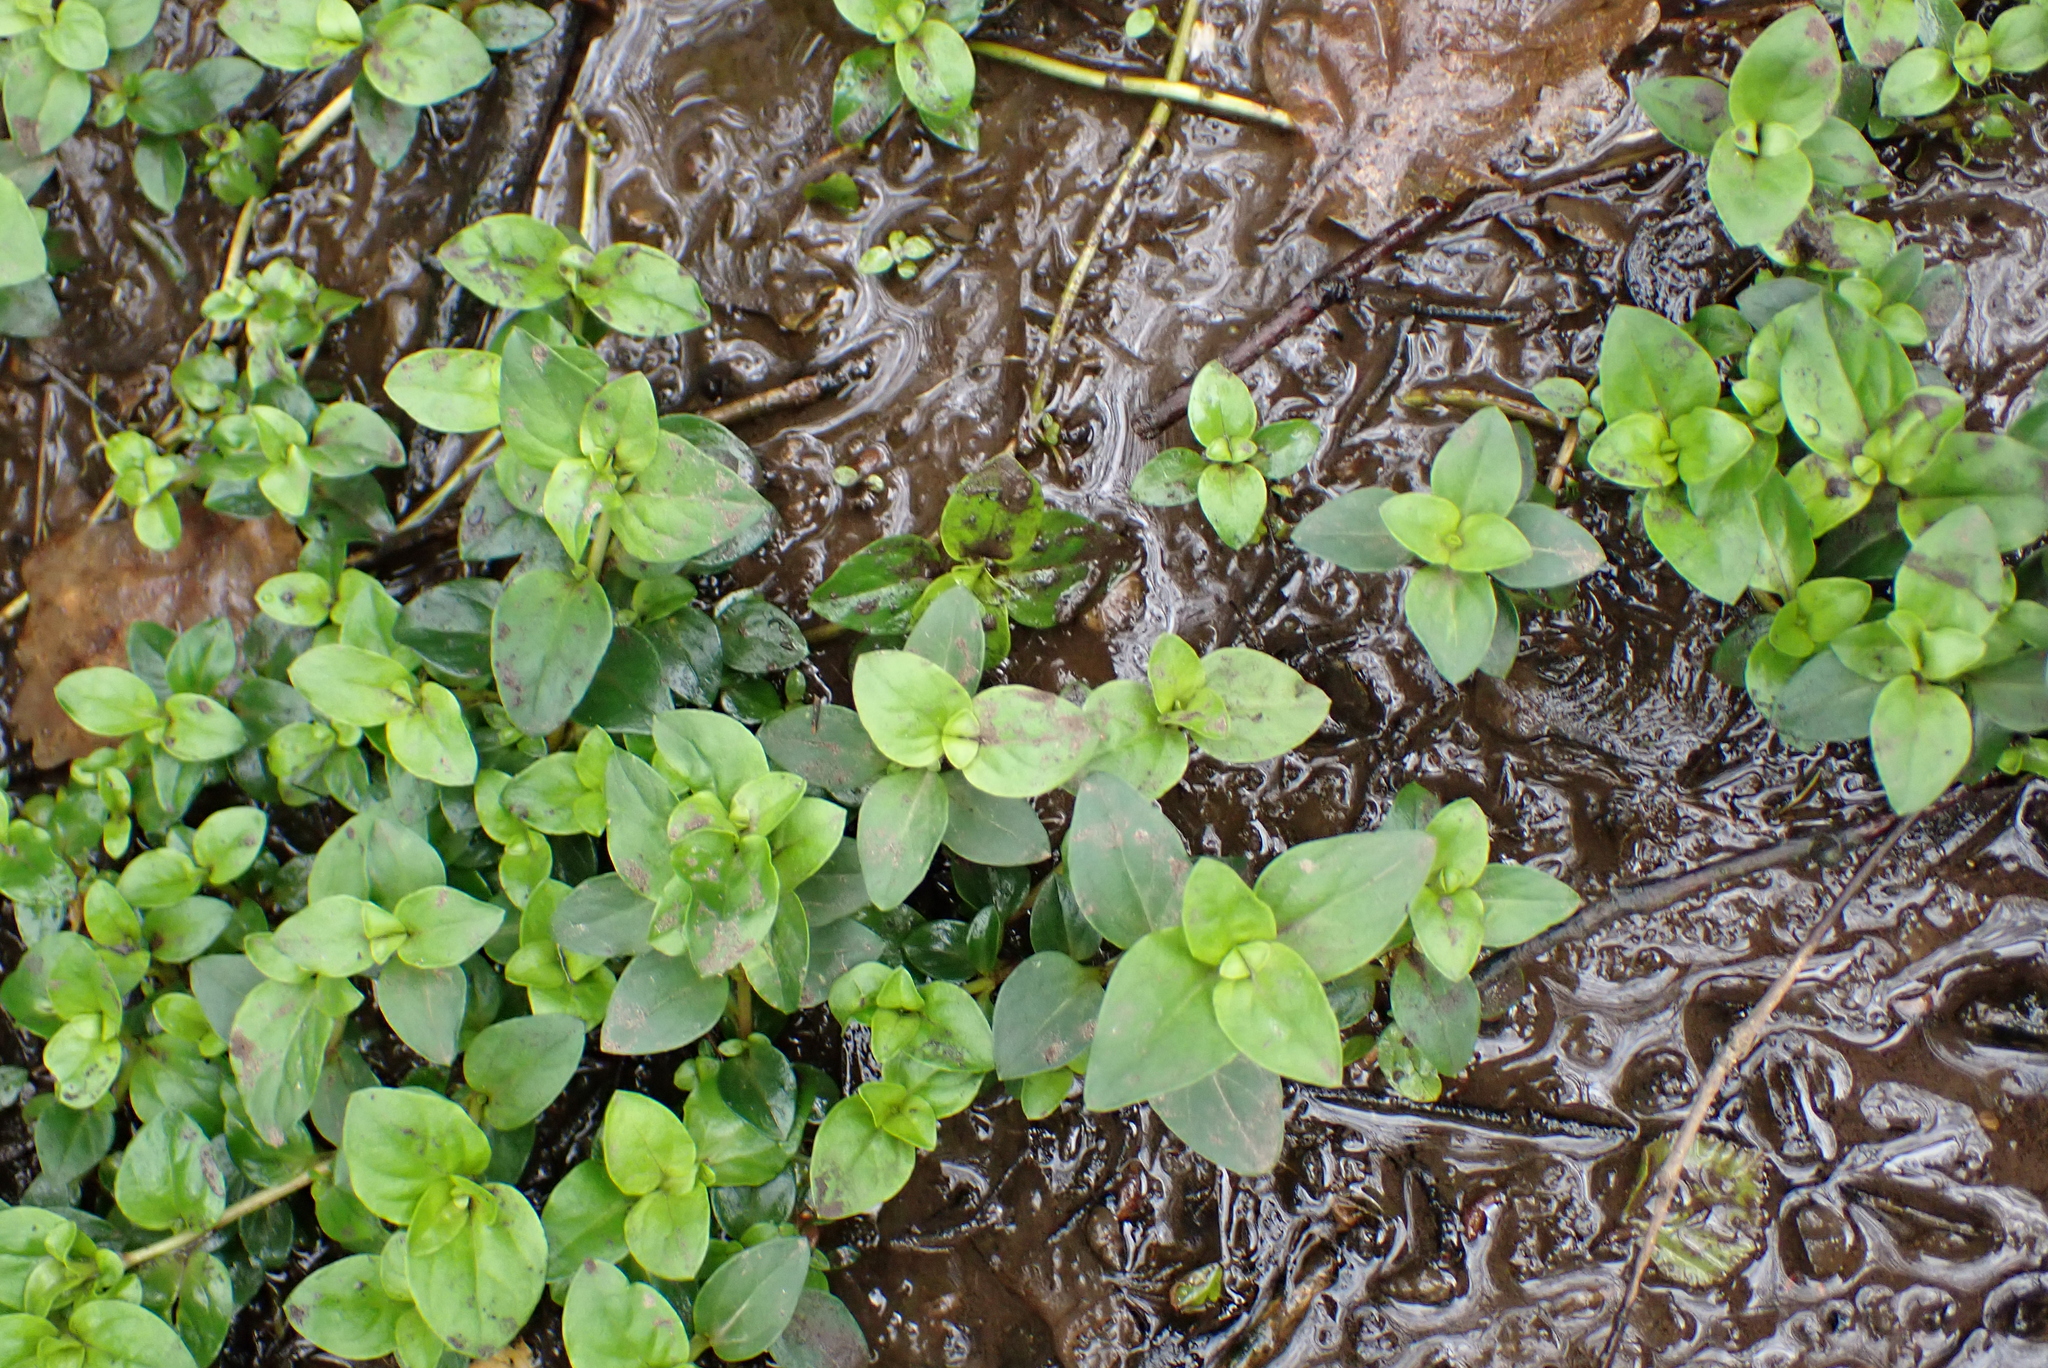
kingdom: Plantae
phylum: Tracheophyta
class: Magnoliopsida
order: Ericales
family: Primulaceae
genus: Lysimachia
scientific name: Lysimachia nemorum
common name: Yellow pimpernel
